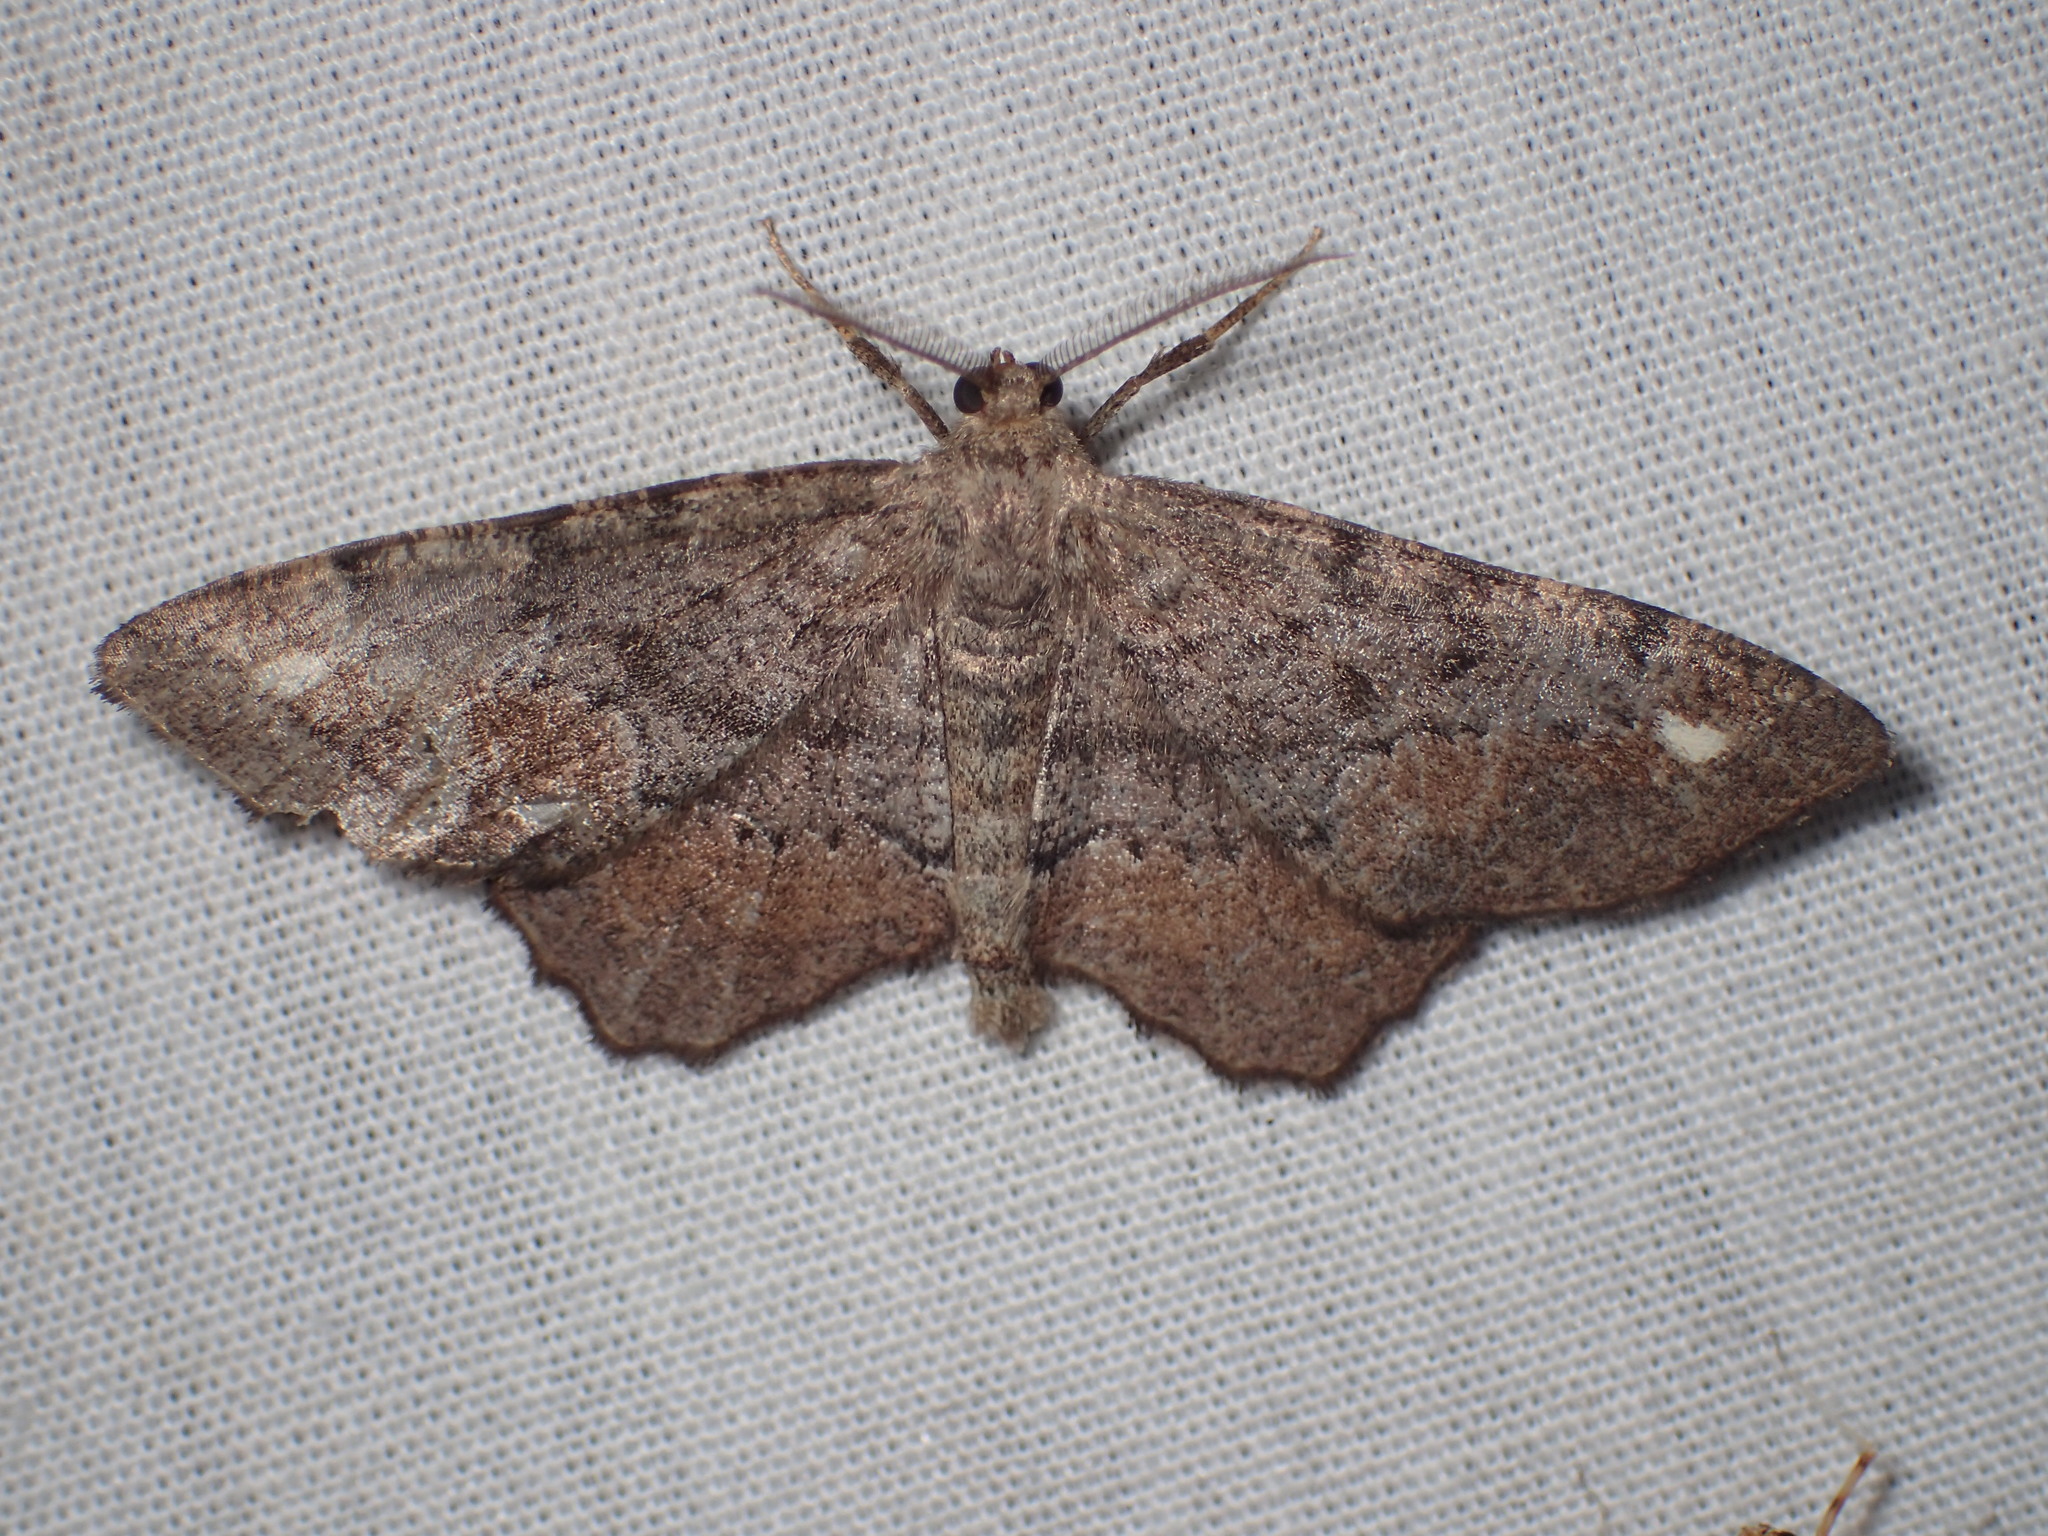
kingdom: Animalia
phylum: Arthropoda
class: Insecta
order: Lepidoptera
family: Geometridae
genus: Hypagyrtis
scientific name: Hypagyrtis esther
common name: Esther moth
